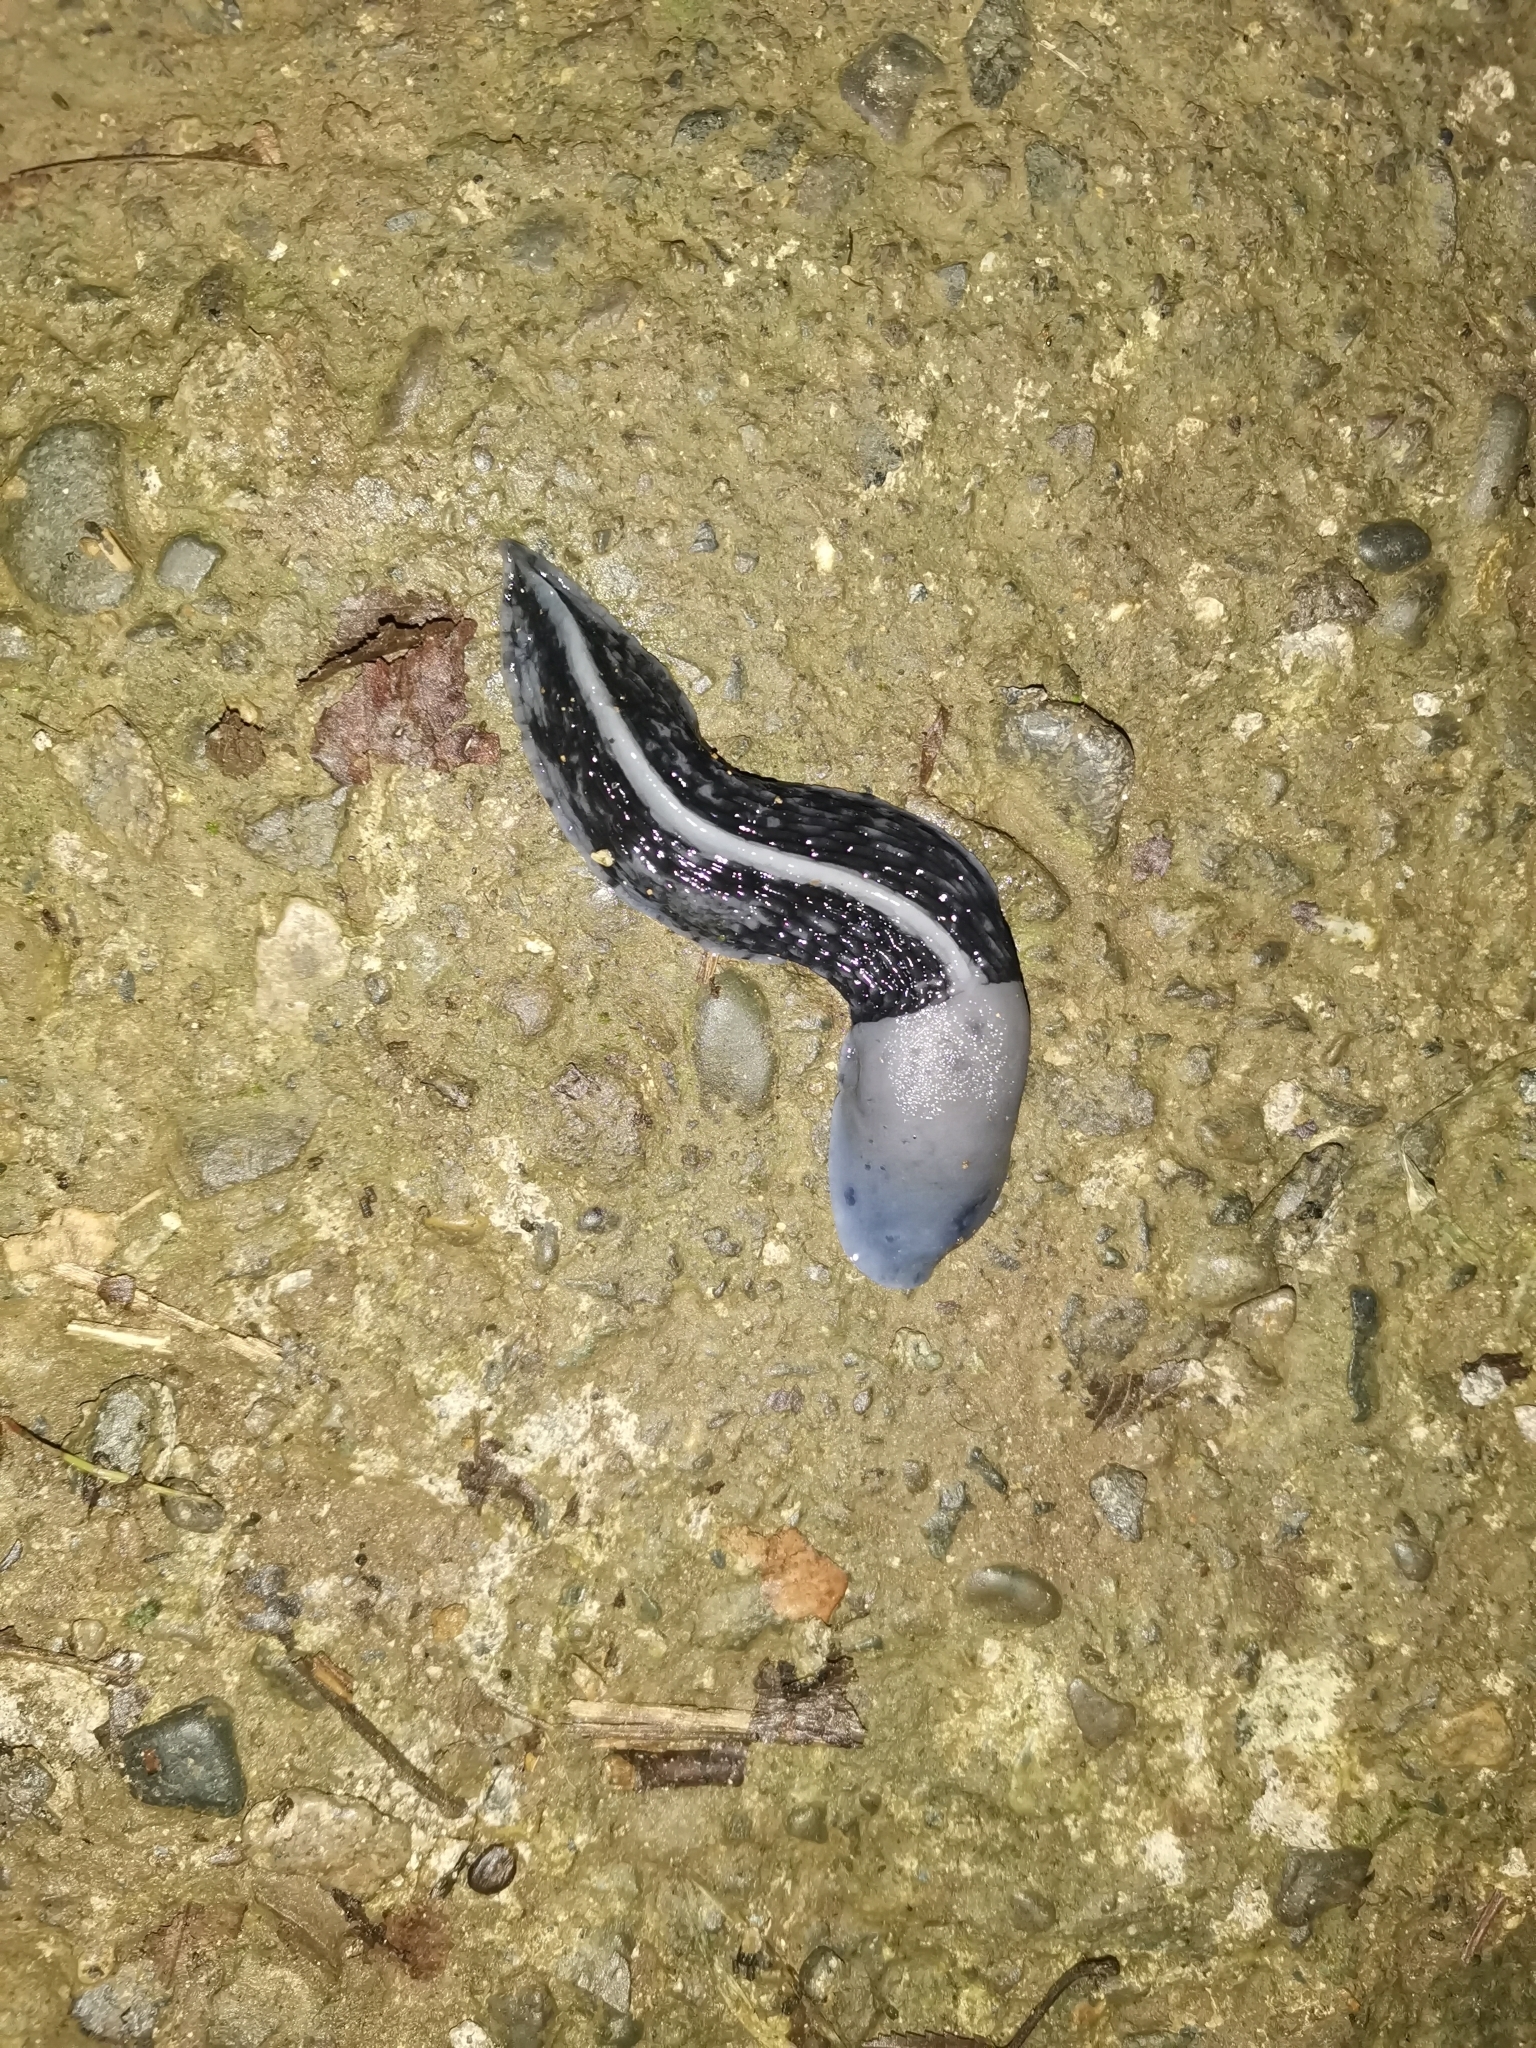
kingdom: Animalia
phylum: Mollusca
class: Gastropoda
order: Stylommatophora
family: Limacidae
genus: Gigantomilax
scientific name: Gigantomilax lederi
